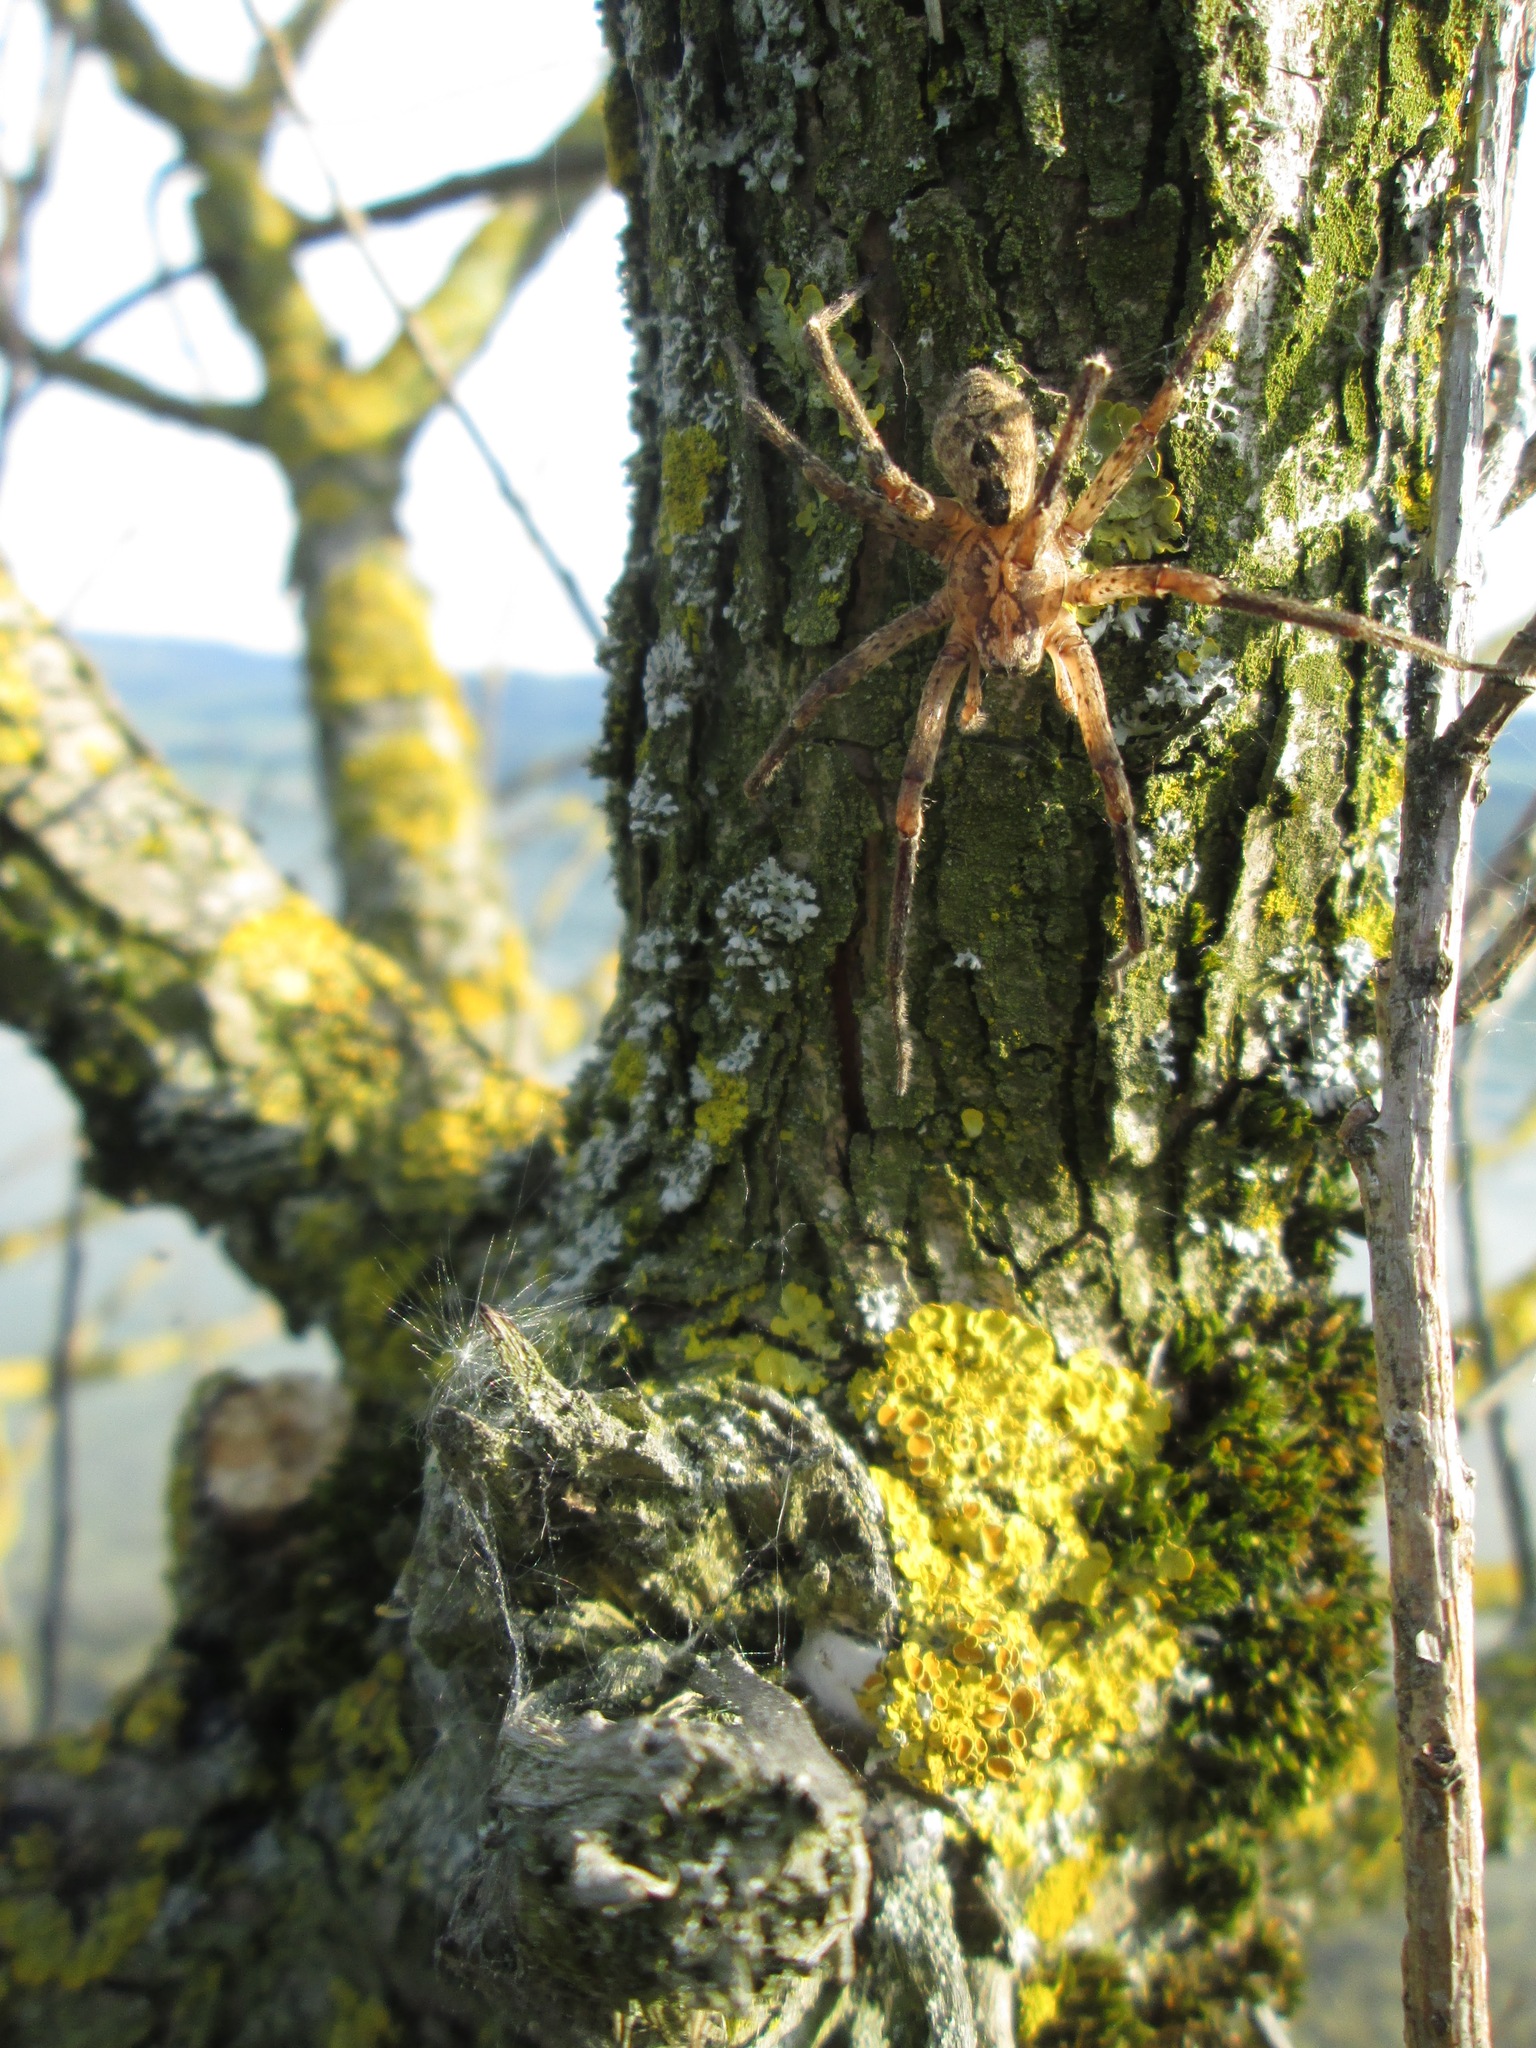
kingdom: Animalia
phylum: Arthropoda
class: Arachnida
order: Araneae
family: Zoropsidae
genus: Zoropsis
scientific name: Zoropsis spinimana
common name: Zoropsid spider
